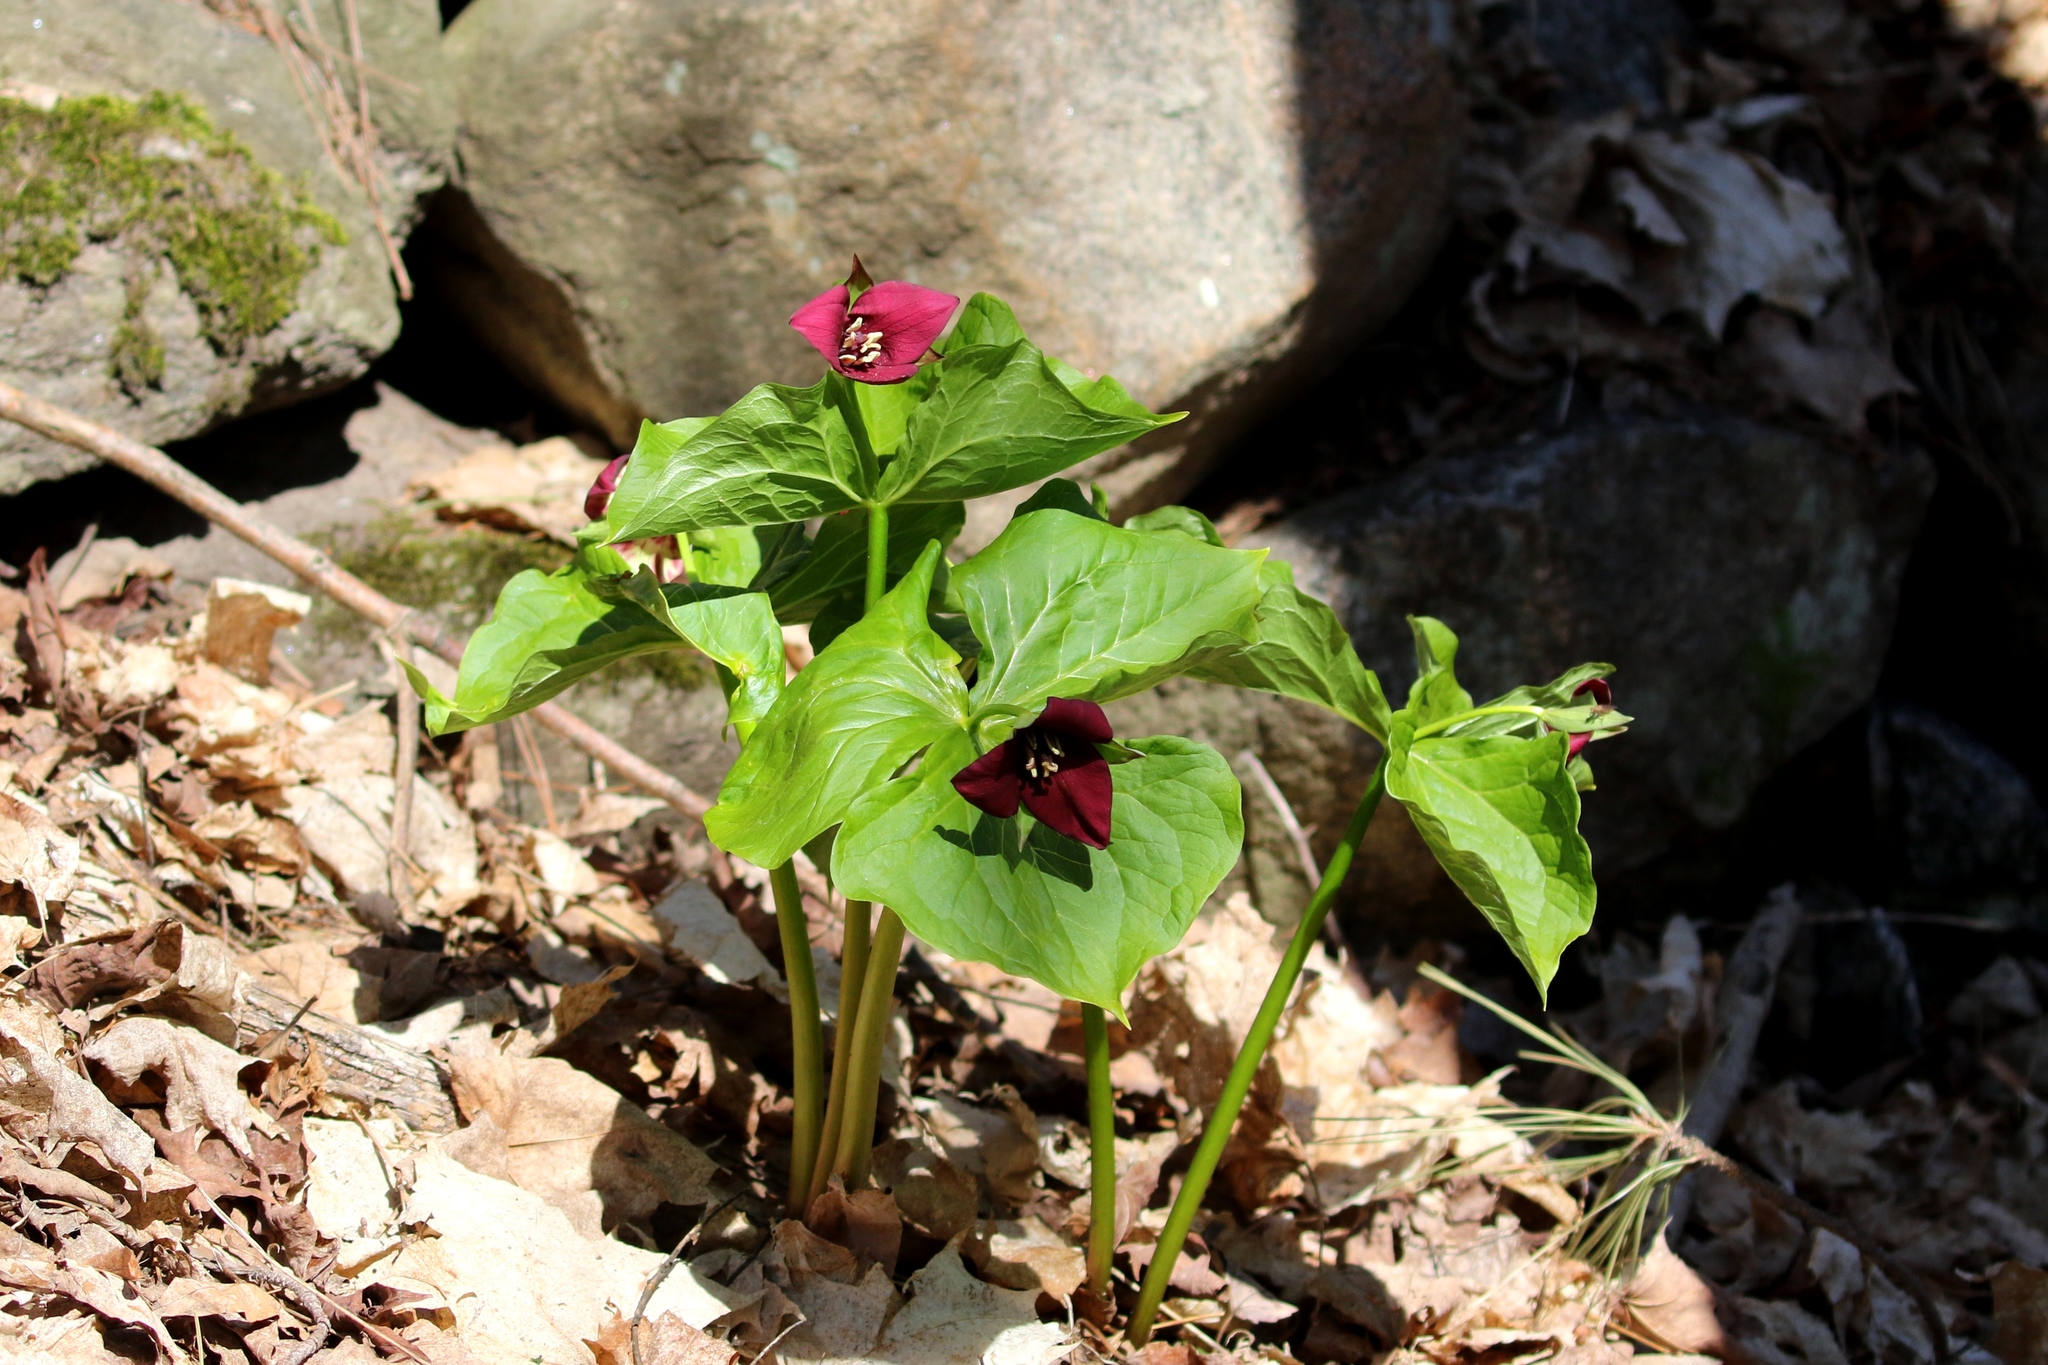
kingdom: Plantae
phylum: Tracheophyta
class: Liliopsida
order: Liliales
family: Melanthiaceae
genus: Trillium
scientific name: Trillium erectum
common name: Purple trillium
